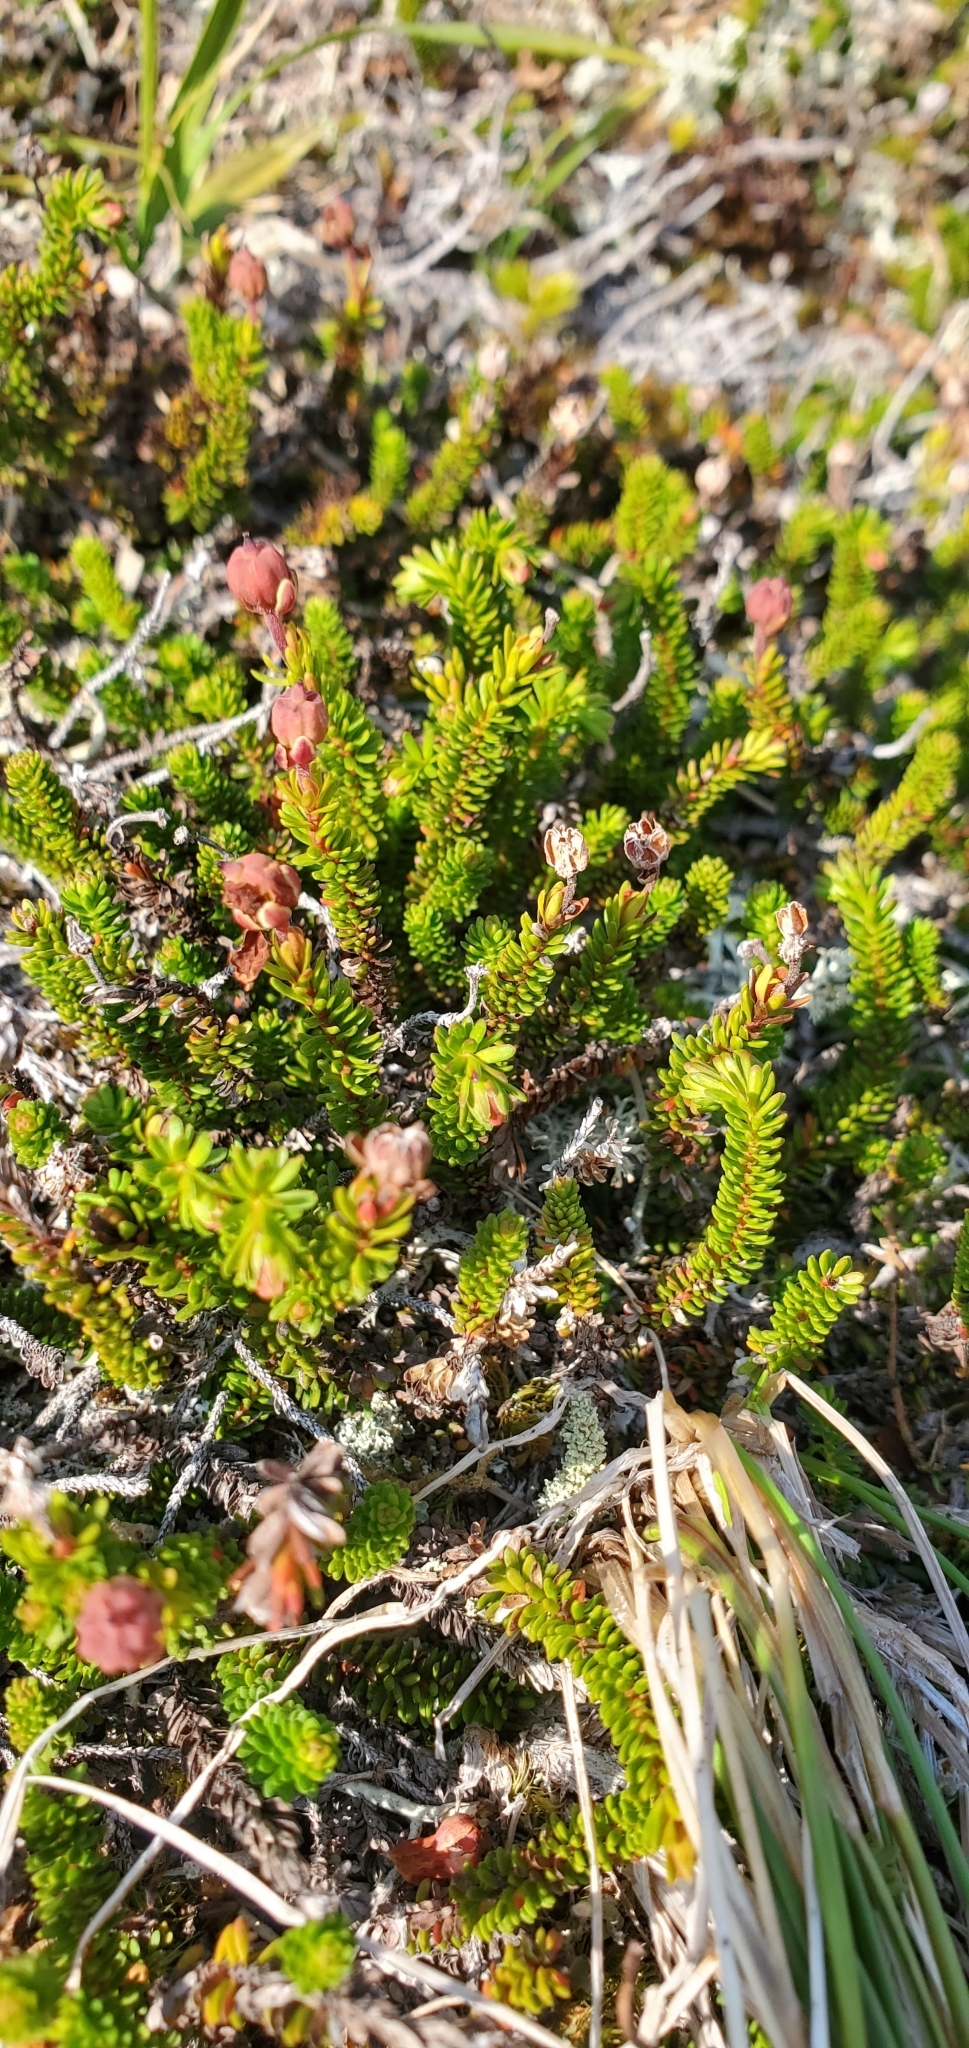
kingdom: Plantae
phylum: Tracheophyta
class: Magnoliopsida
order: Ericales
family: Ericaceae
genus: Harrimanella
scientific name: Harrimanella stelleriana
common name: Alaska bell heather
